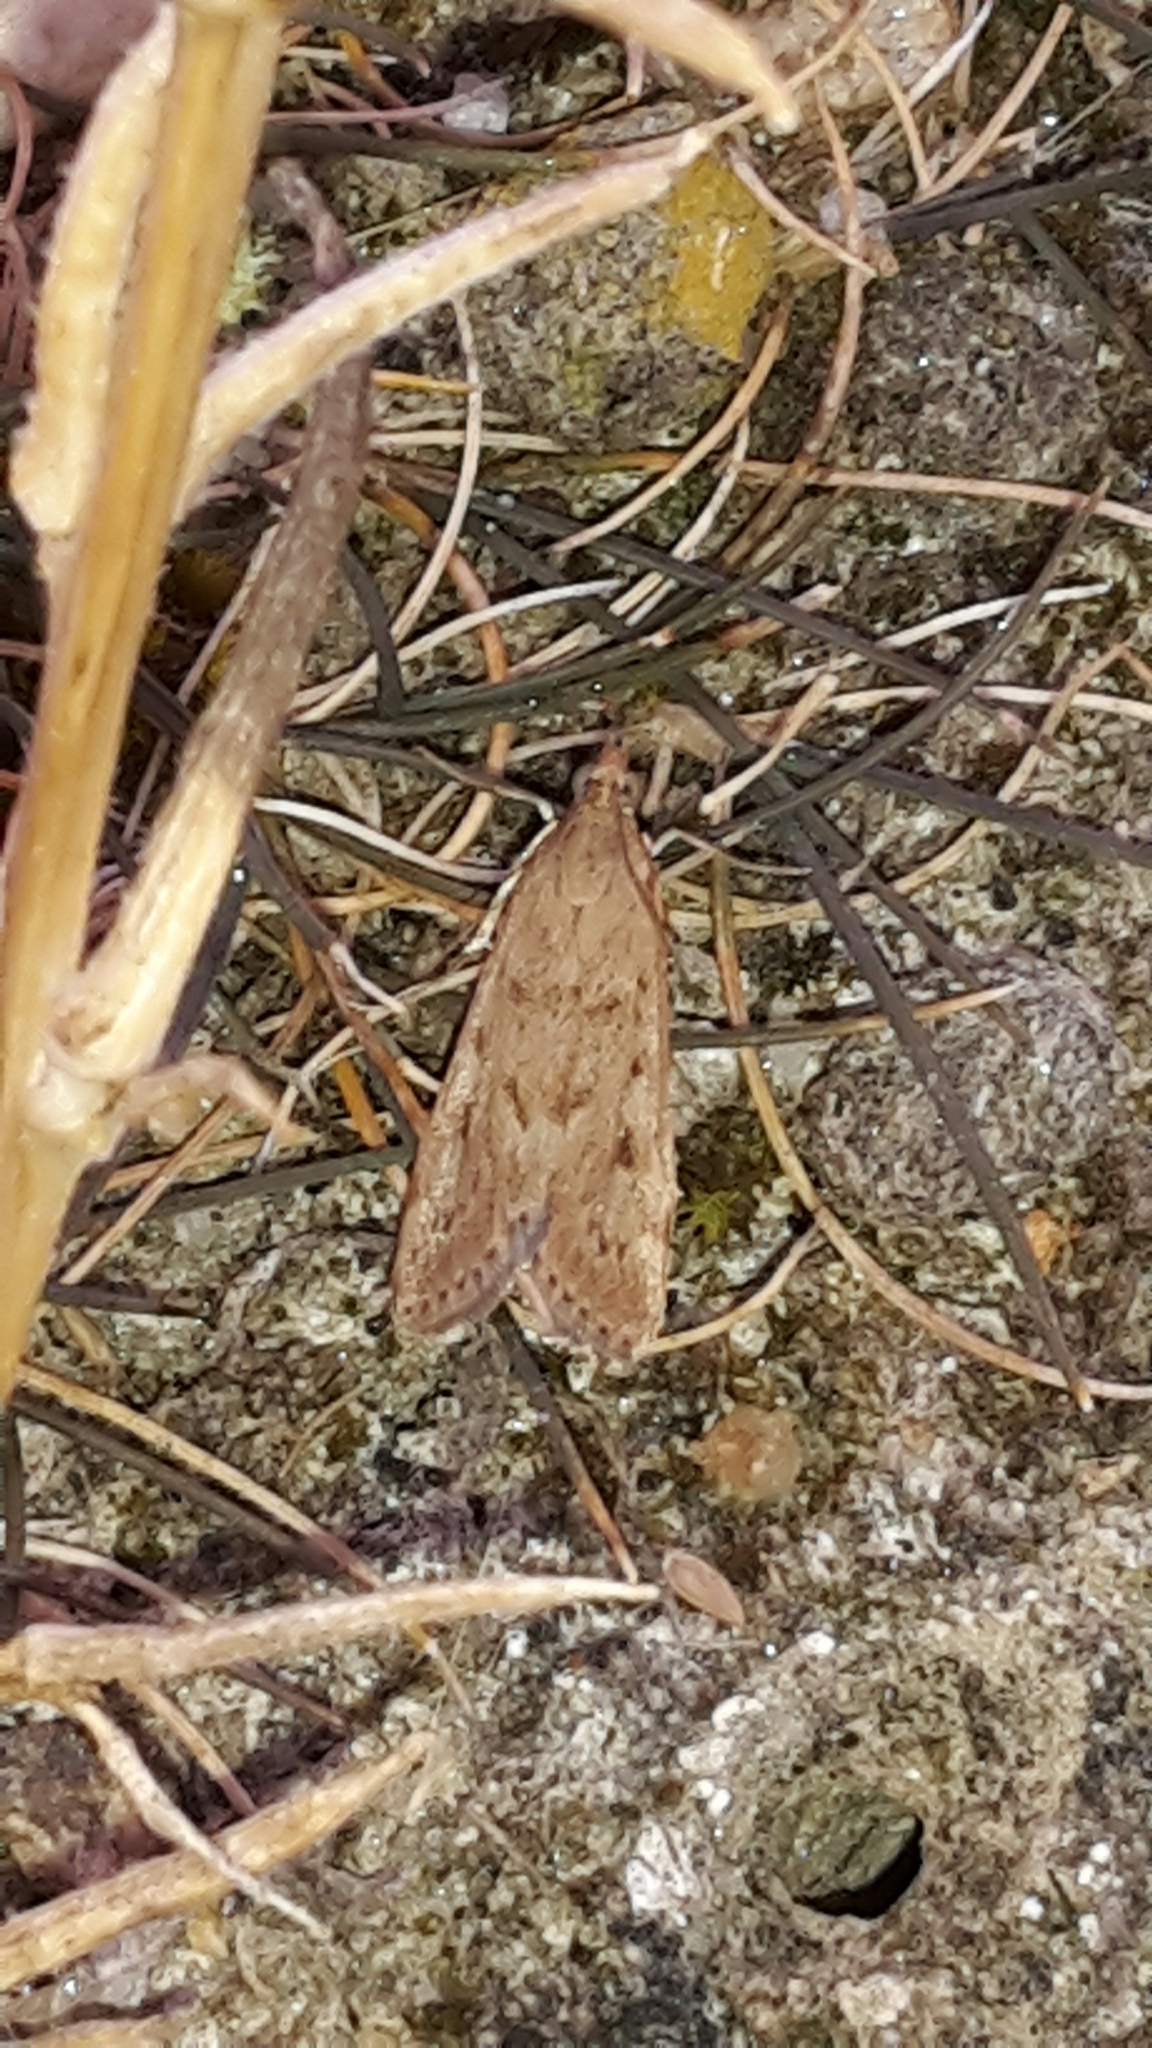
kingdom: Animalia
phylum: Arthropoda
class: Insecta
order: Lepidoptera
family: Crambidae
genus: Achyra
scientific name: Achyra affinitalis
